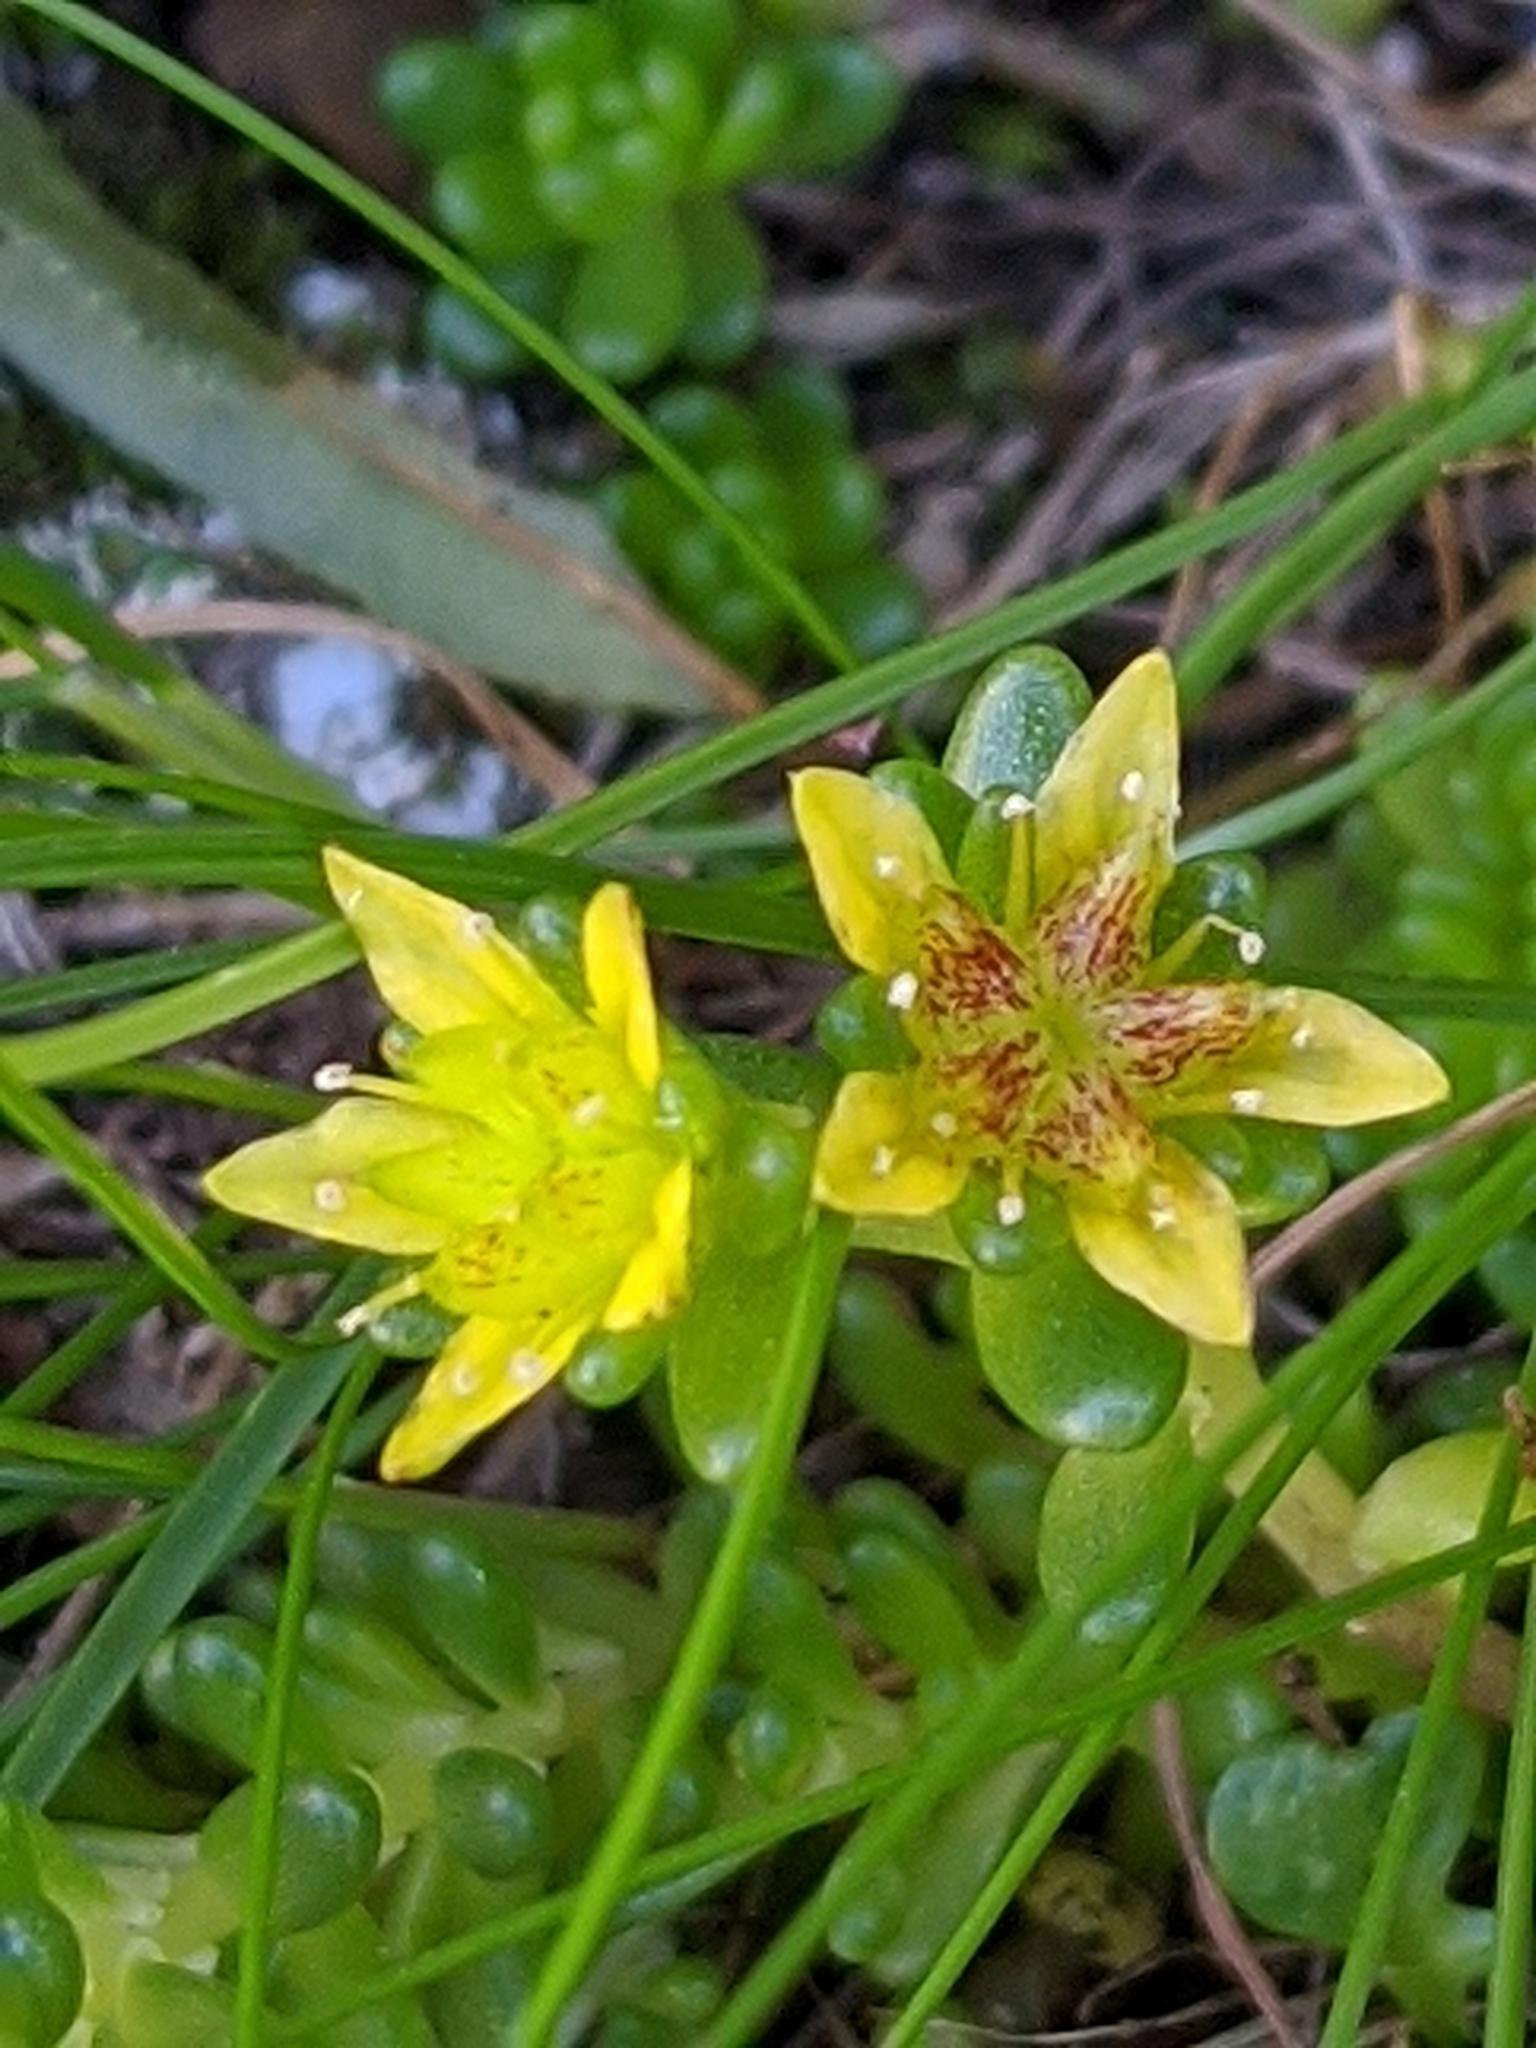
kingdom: Plantae
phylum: Tracheophyta
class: Magnoliopsida
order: Saxifragales
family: Crassulaceae
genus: Sedum
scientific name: Sedum alpestre
